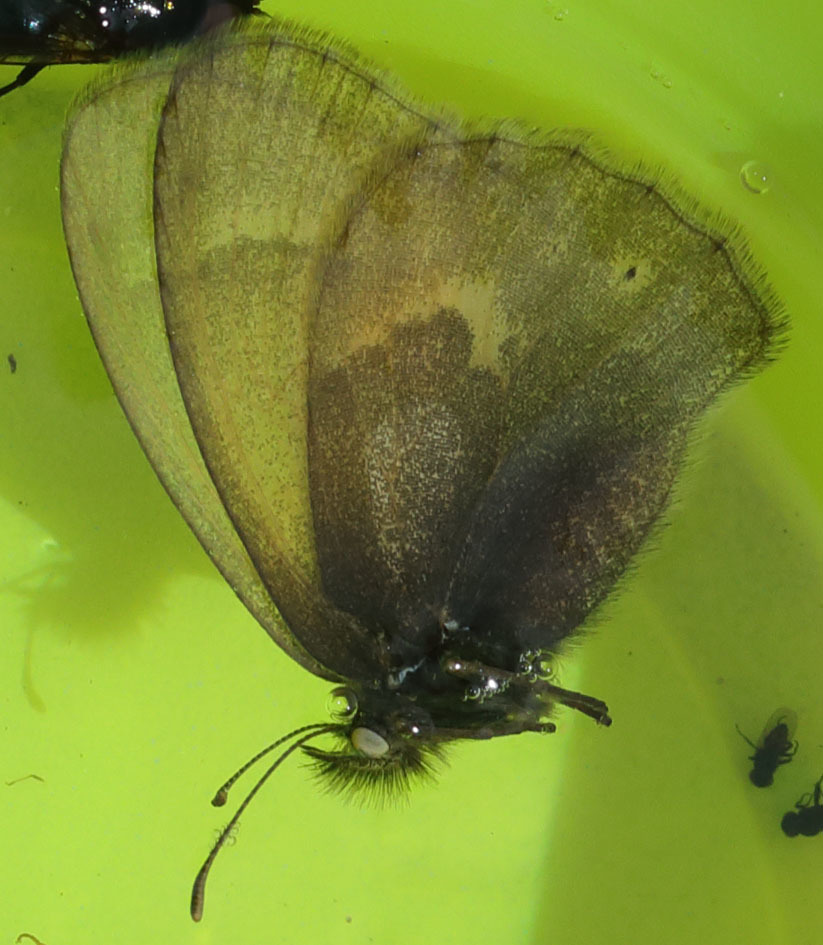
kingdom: Animalia
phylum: Arthropoda
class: Insecta
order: Lepidoptera
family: Nymphalidae
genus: Coenonympha
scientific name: Coenonympha california
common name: Common ringlet
